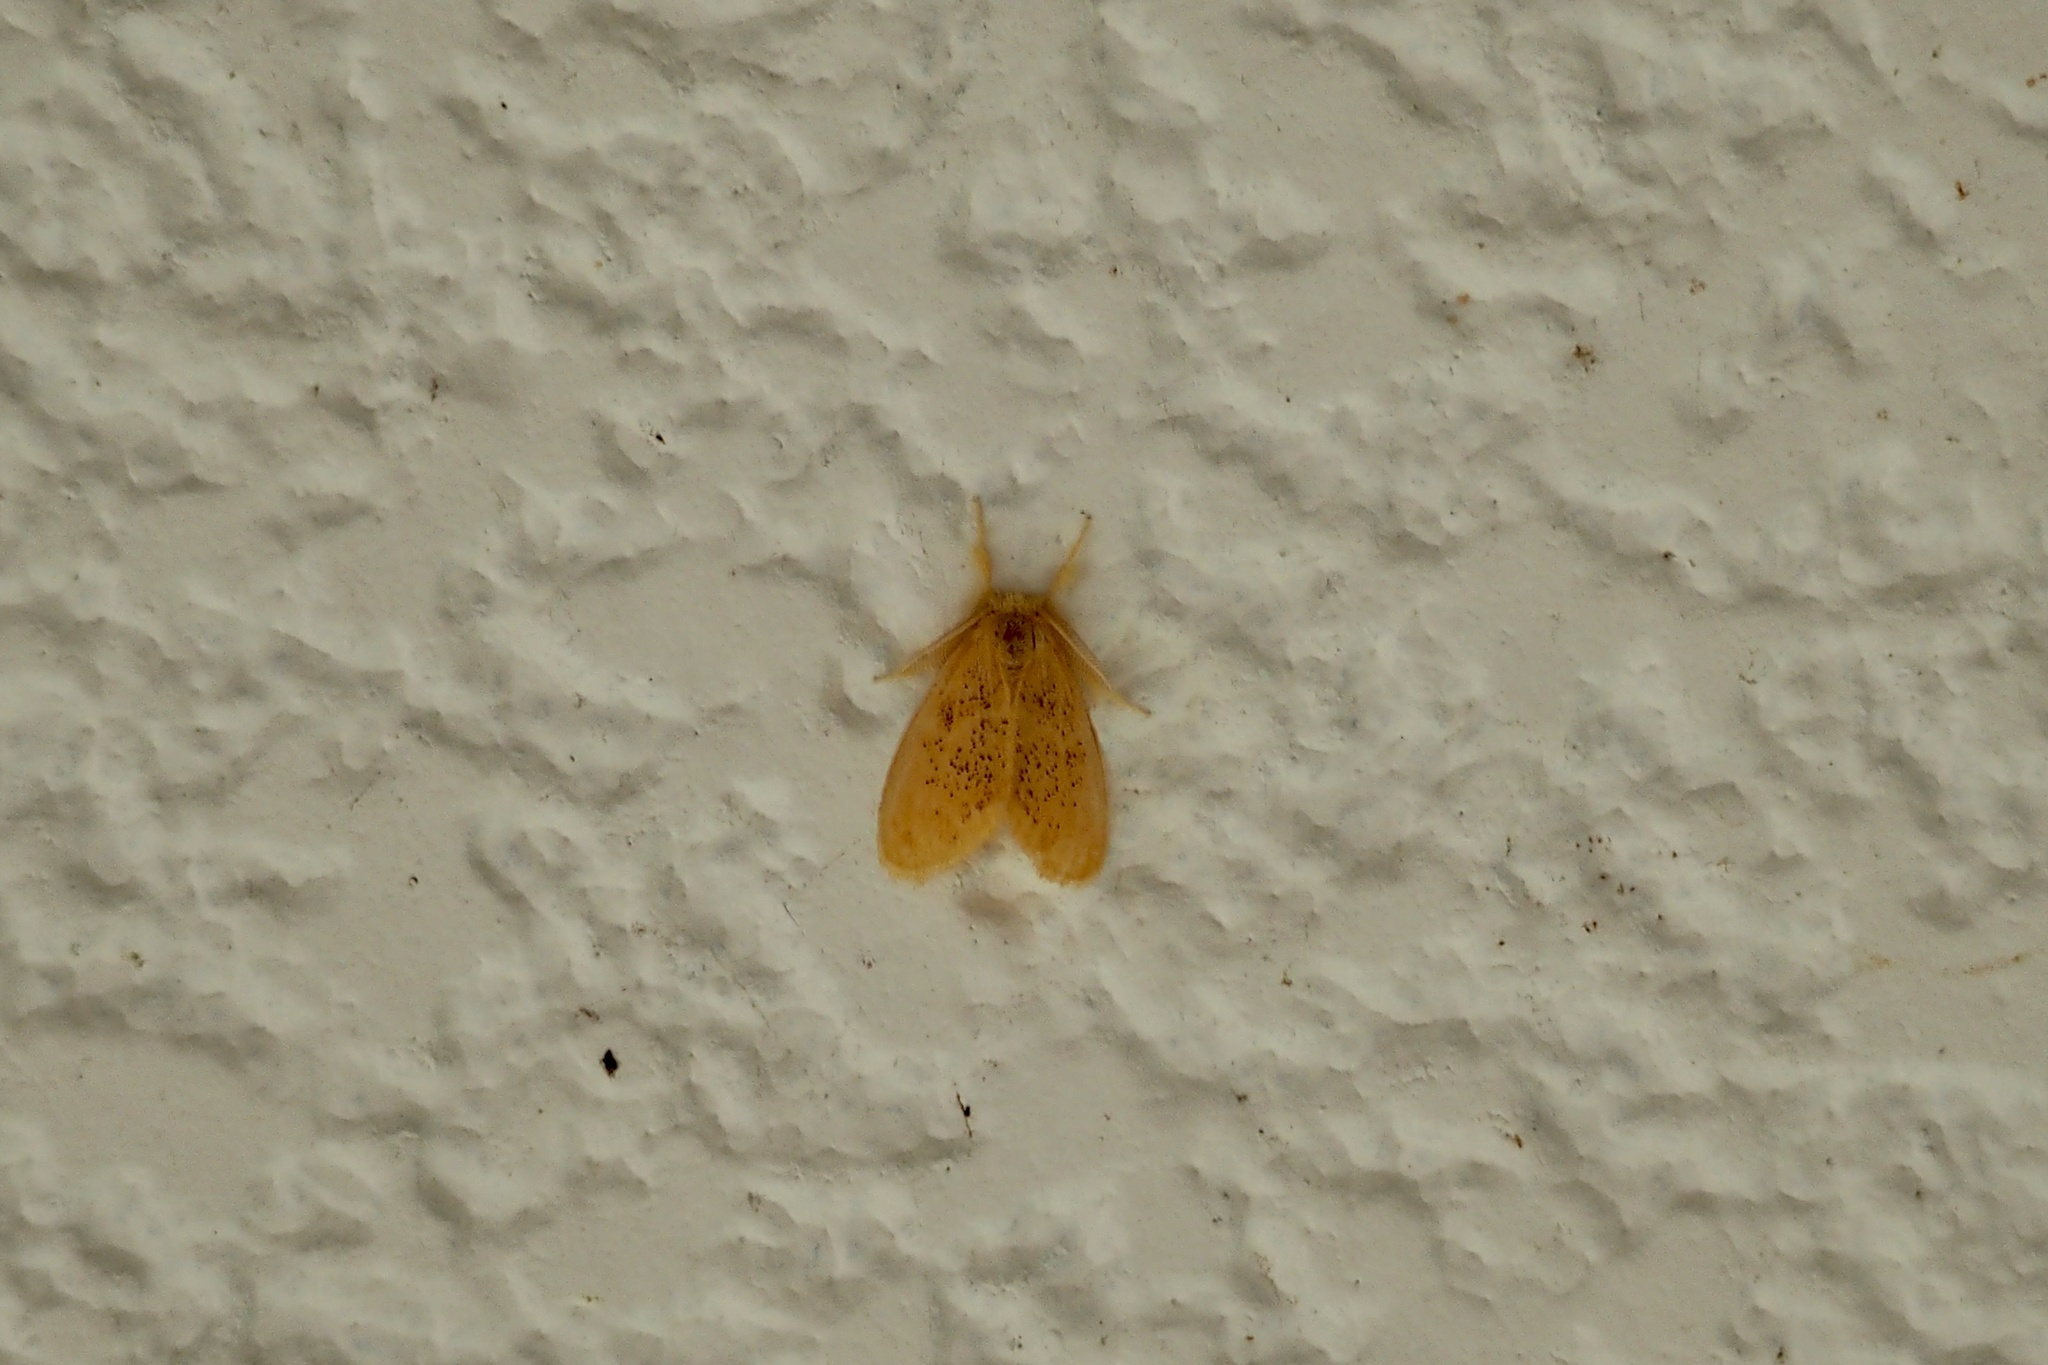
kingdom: Animalia
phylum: Arthropoda
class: Insecta
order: Lepidoptera
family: Erebidae
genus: Somena
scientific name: Somena
